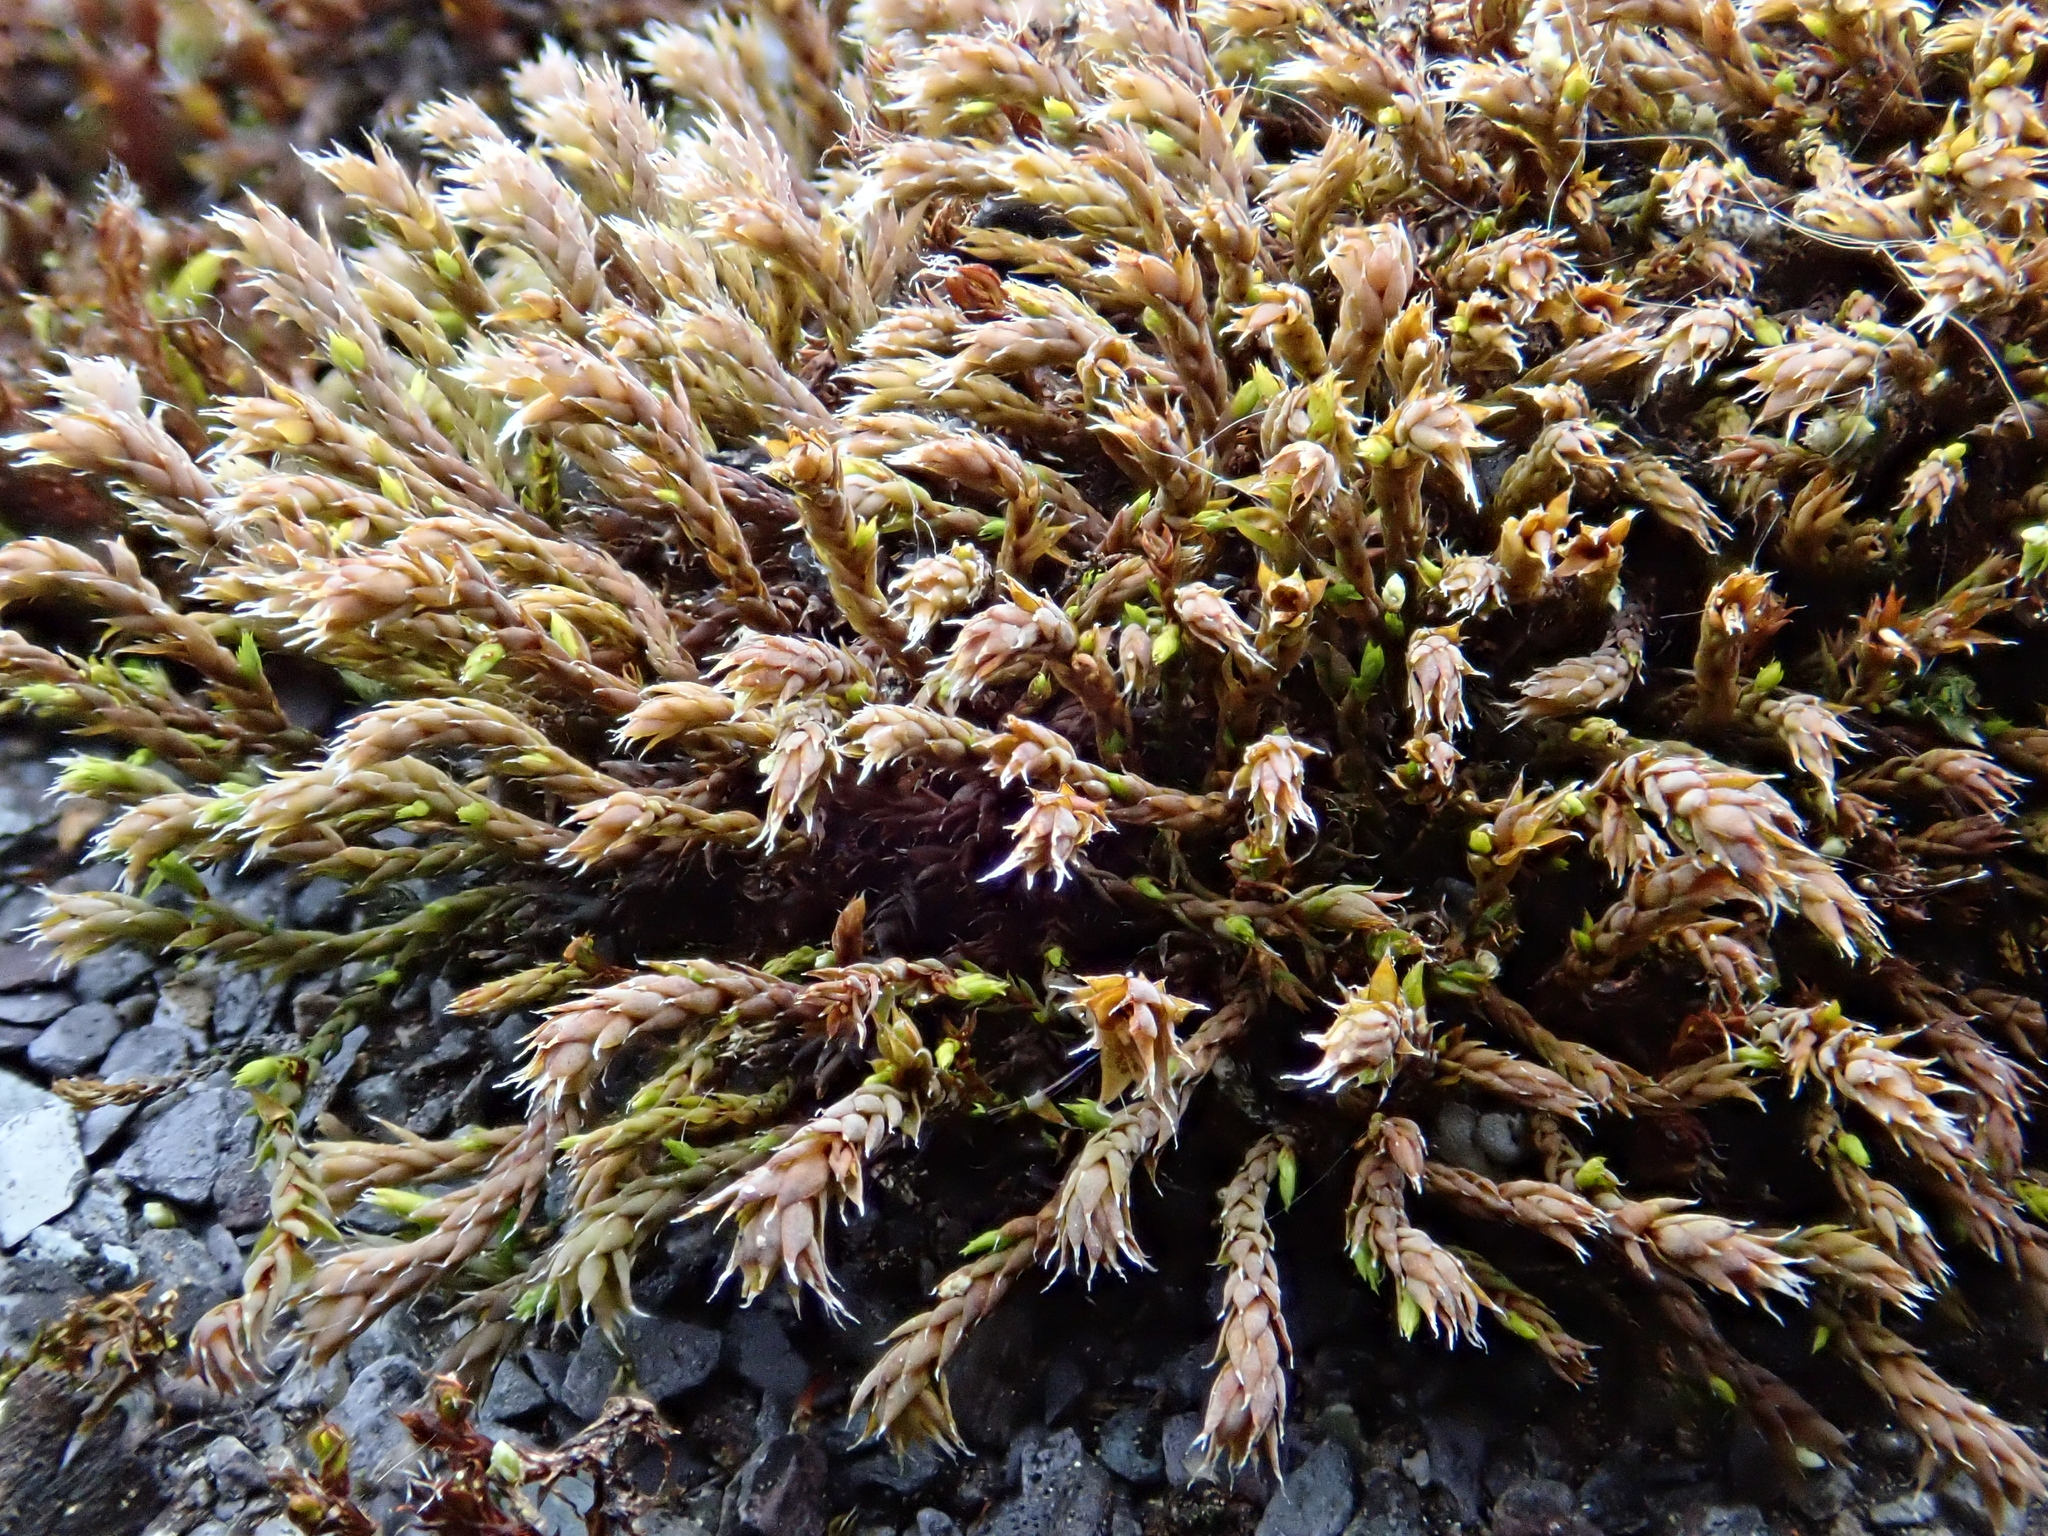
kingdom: Plantae
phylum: Bryophyta
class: Bryopsida
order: Hedwigiales
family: Hedwigiaceae
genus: Hedwigia
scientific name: Hedwigia ciliata
